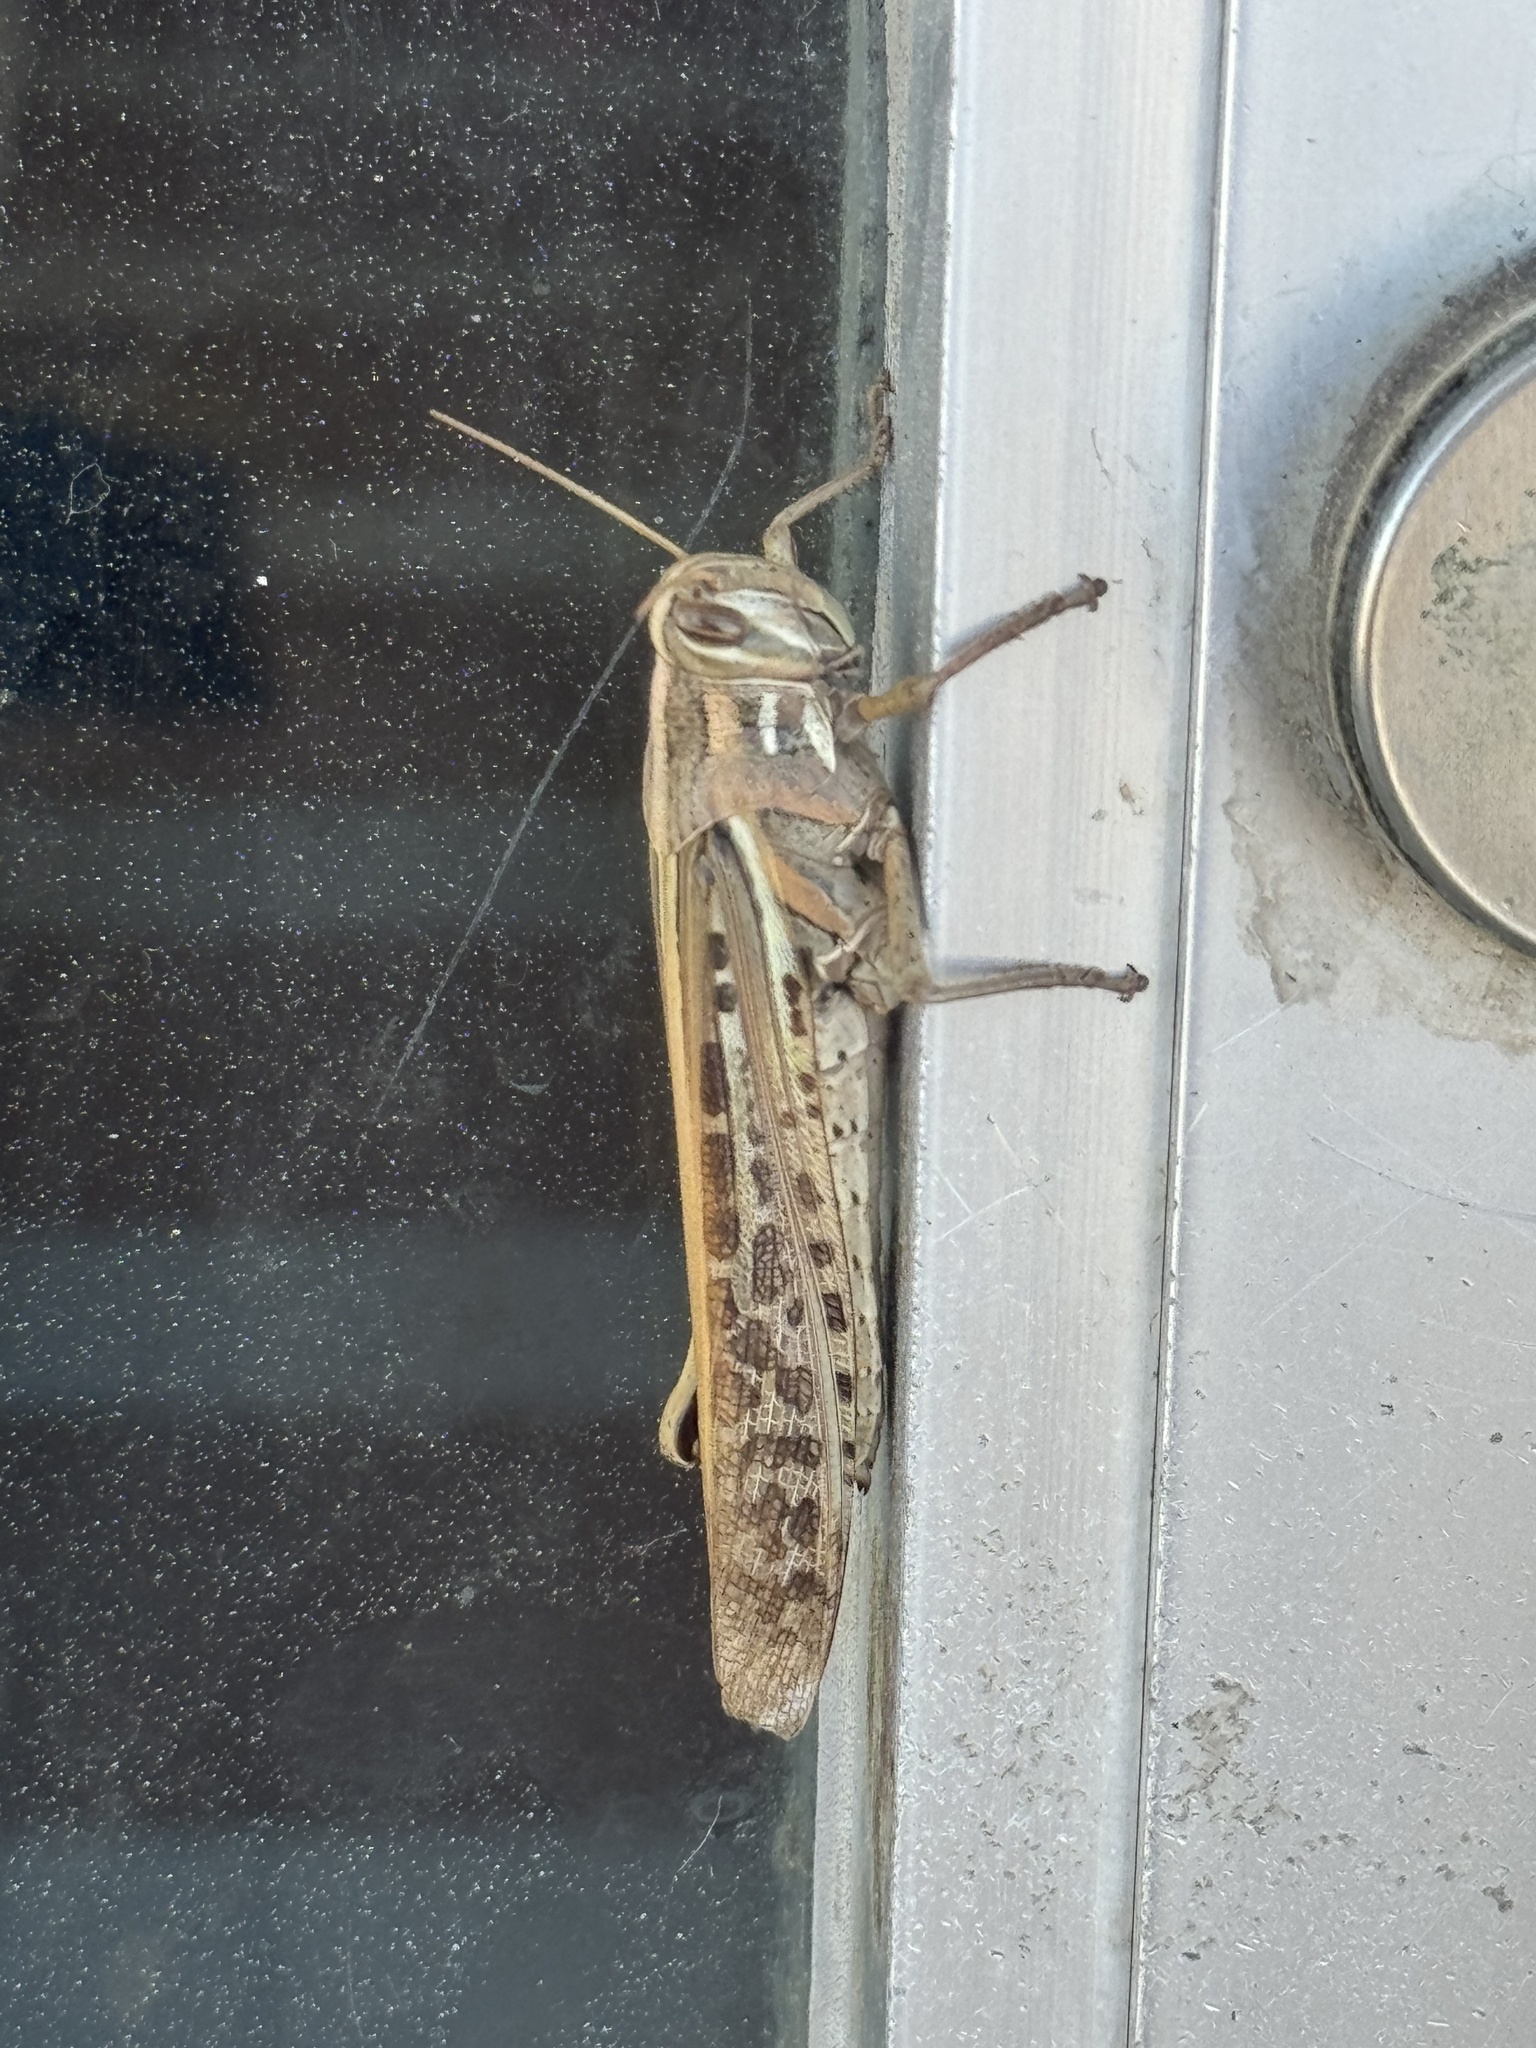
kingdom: Animalia
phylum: Arthropoda
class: Insecta
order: Orthoptera
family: Acrididae
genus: Schistocerca
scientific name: Schistocerca americana
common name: American bird locust
